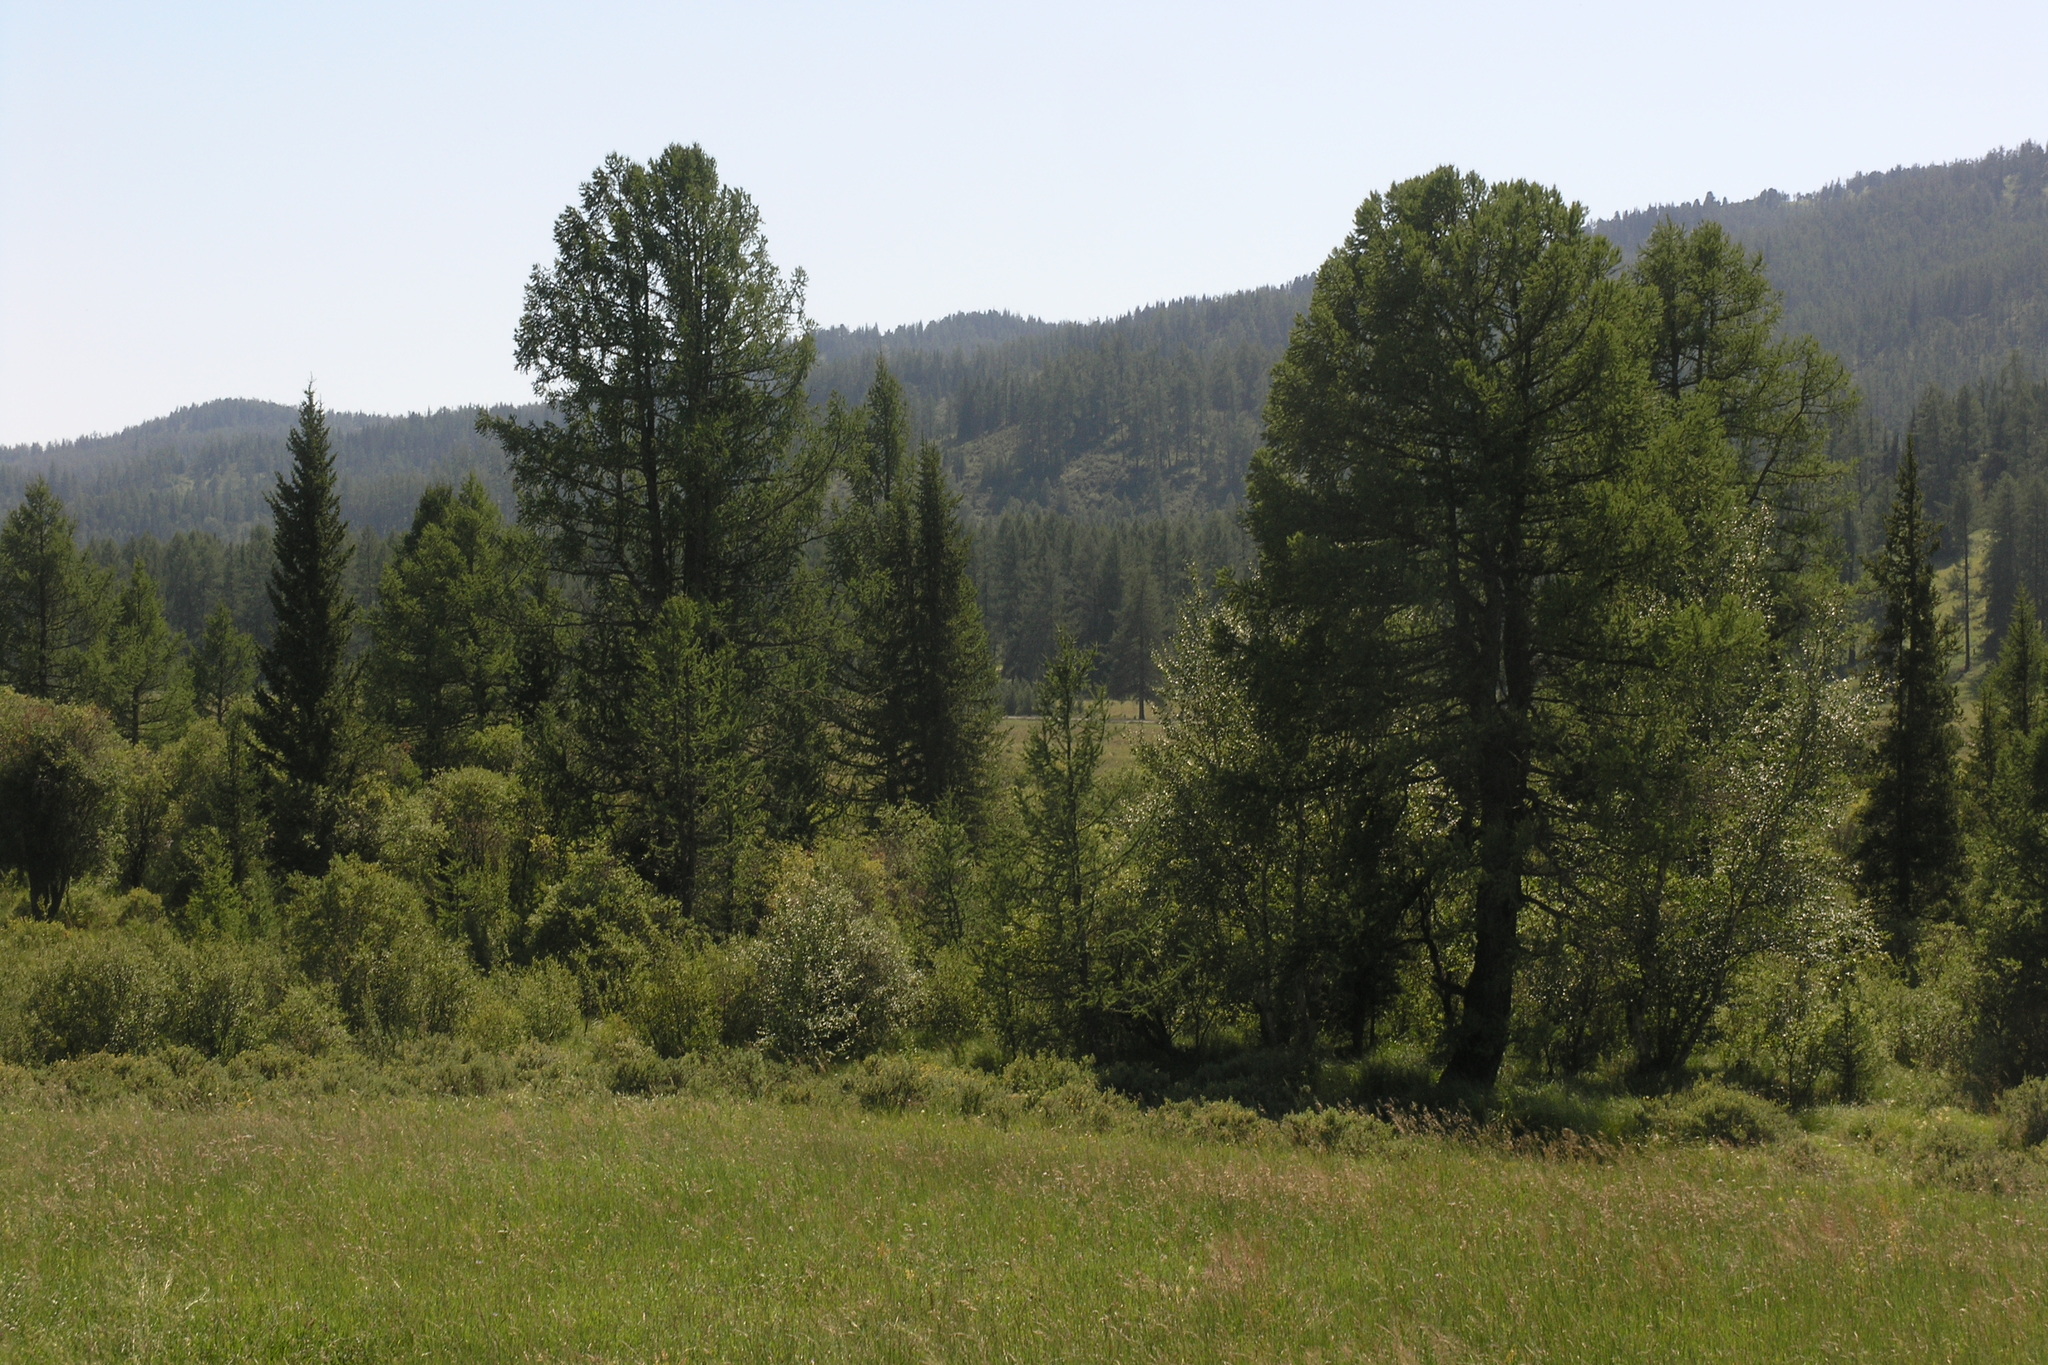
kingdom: Plantae
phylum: Tracheophyta
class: Pinopsida
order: Pinales
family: Pinaceae
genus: Picea
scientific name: Picea obovata
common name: Siberian spruce
